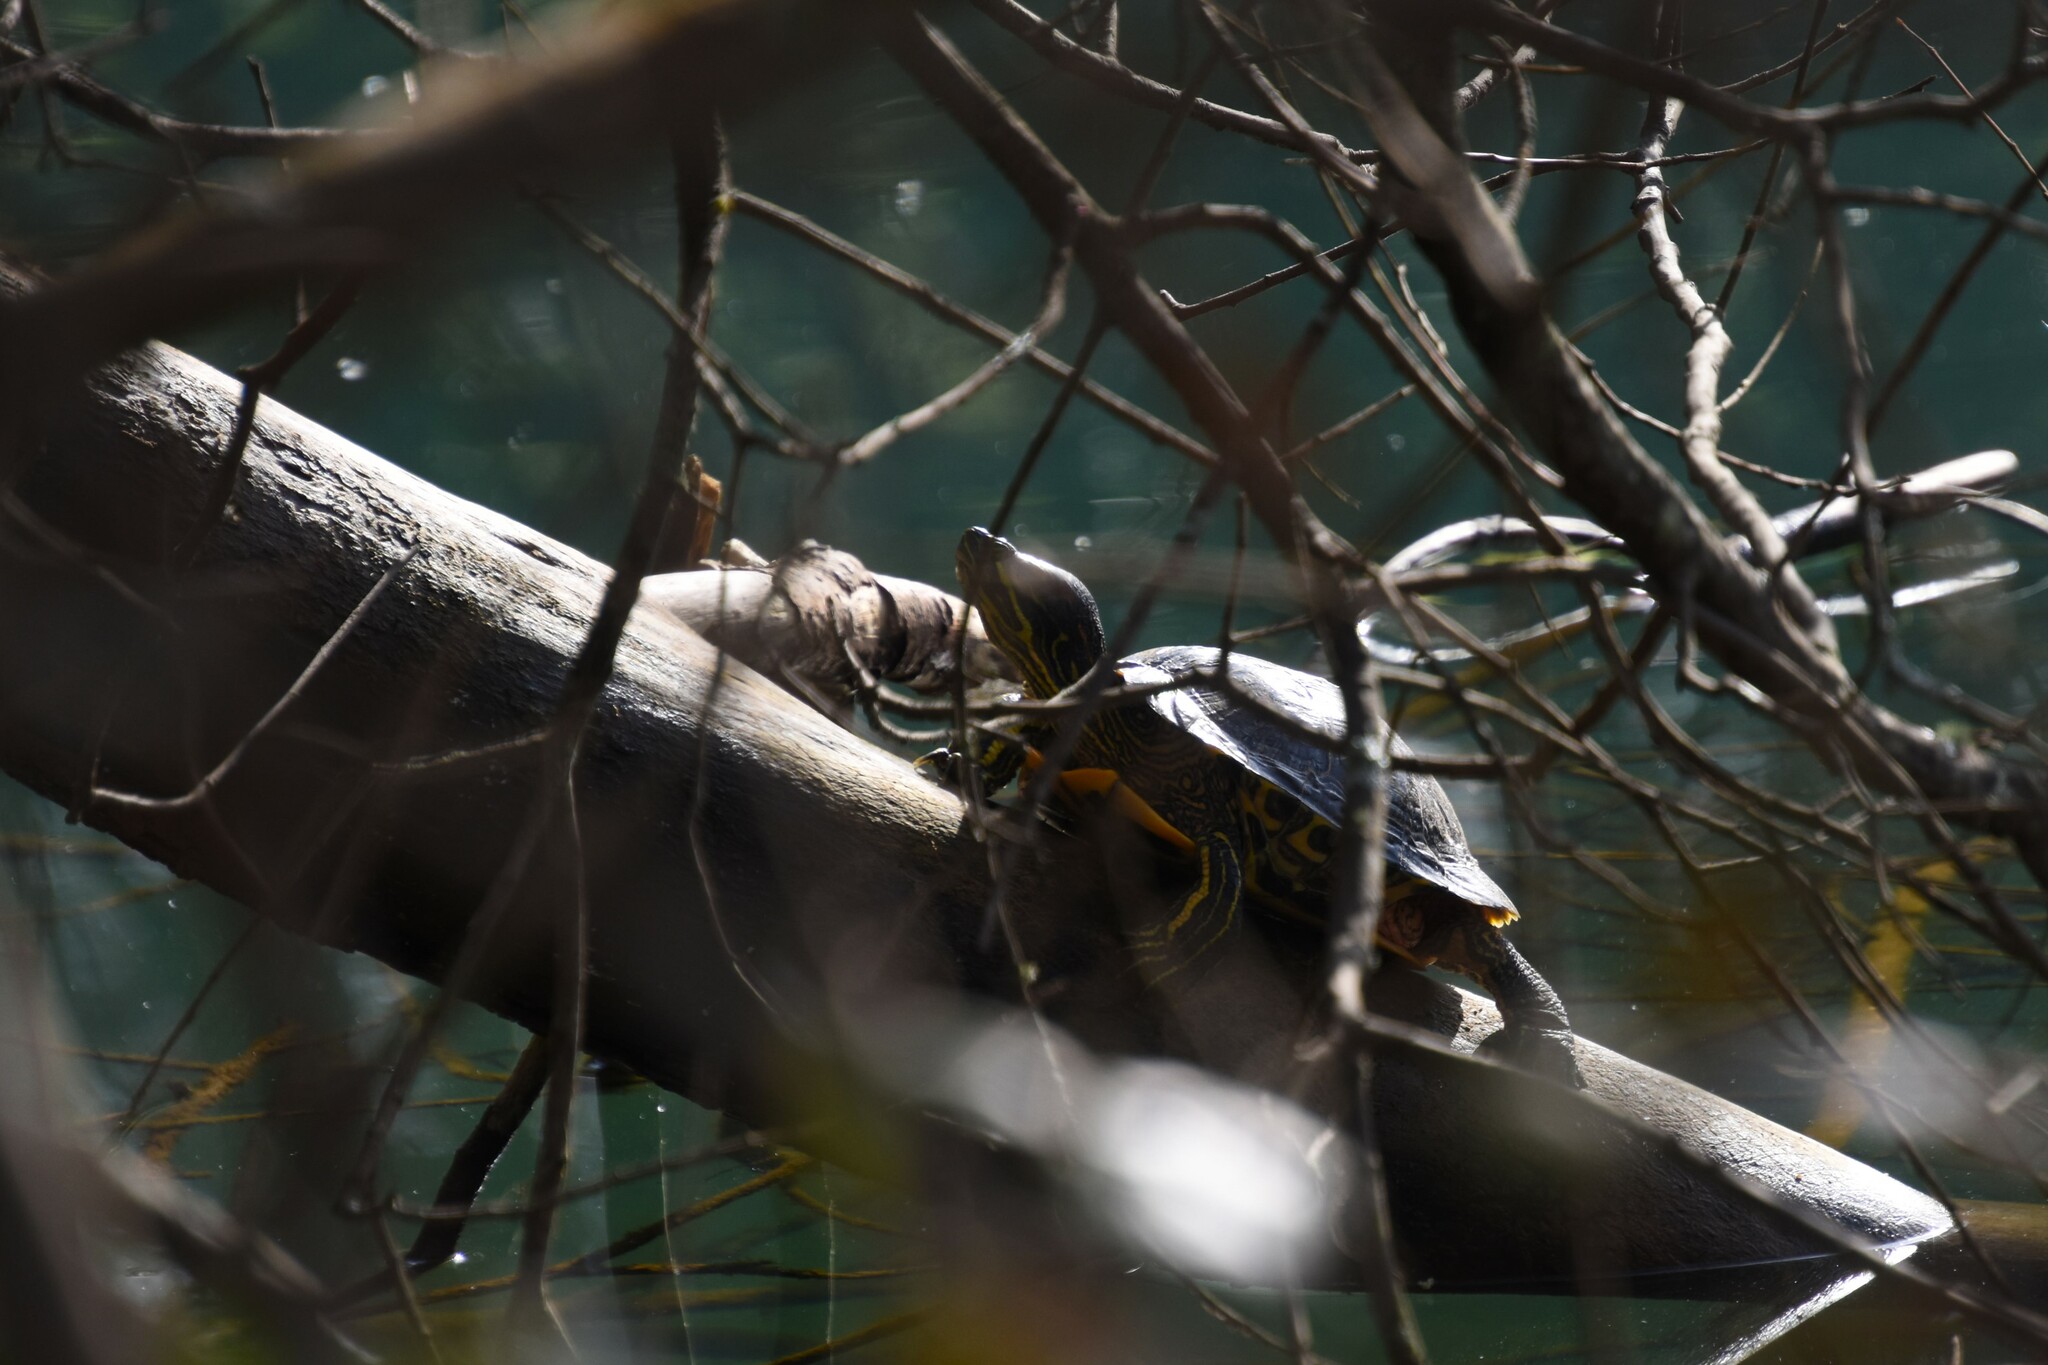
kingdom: Animalia
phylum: Chordata
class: Testudines
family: Emydidae
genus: Trachemys
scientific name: Trachemys scripta
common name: Slider
